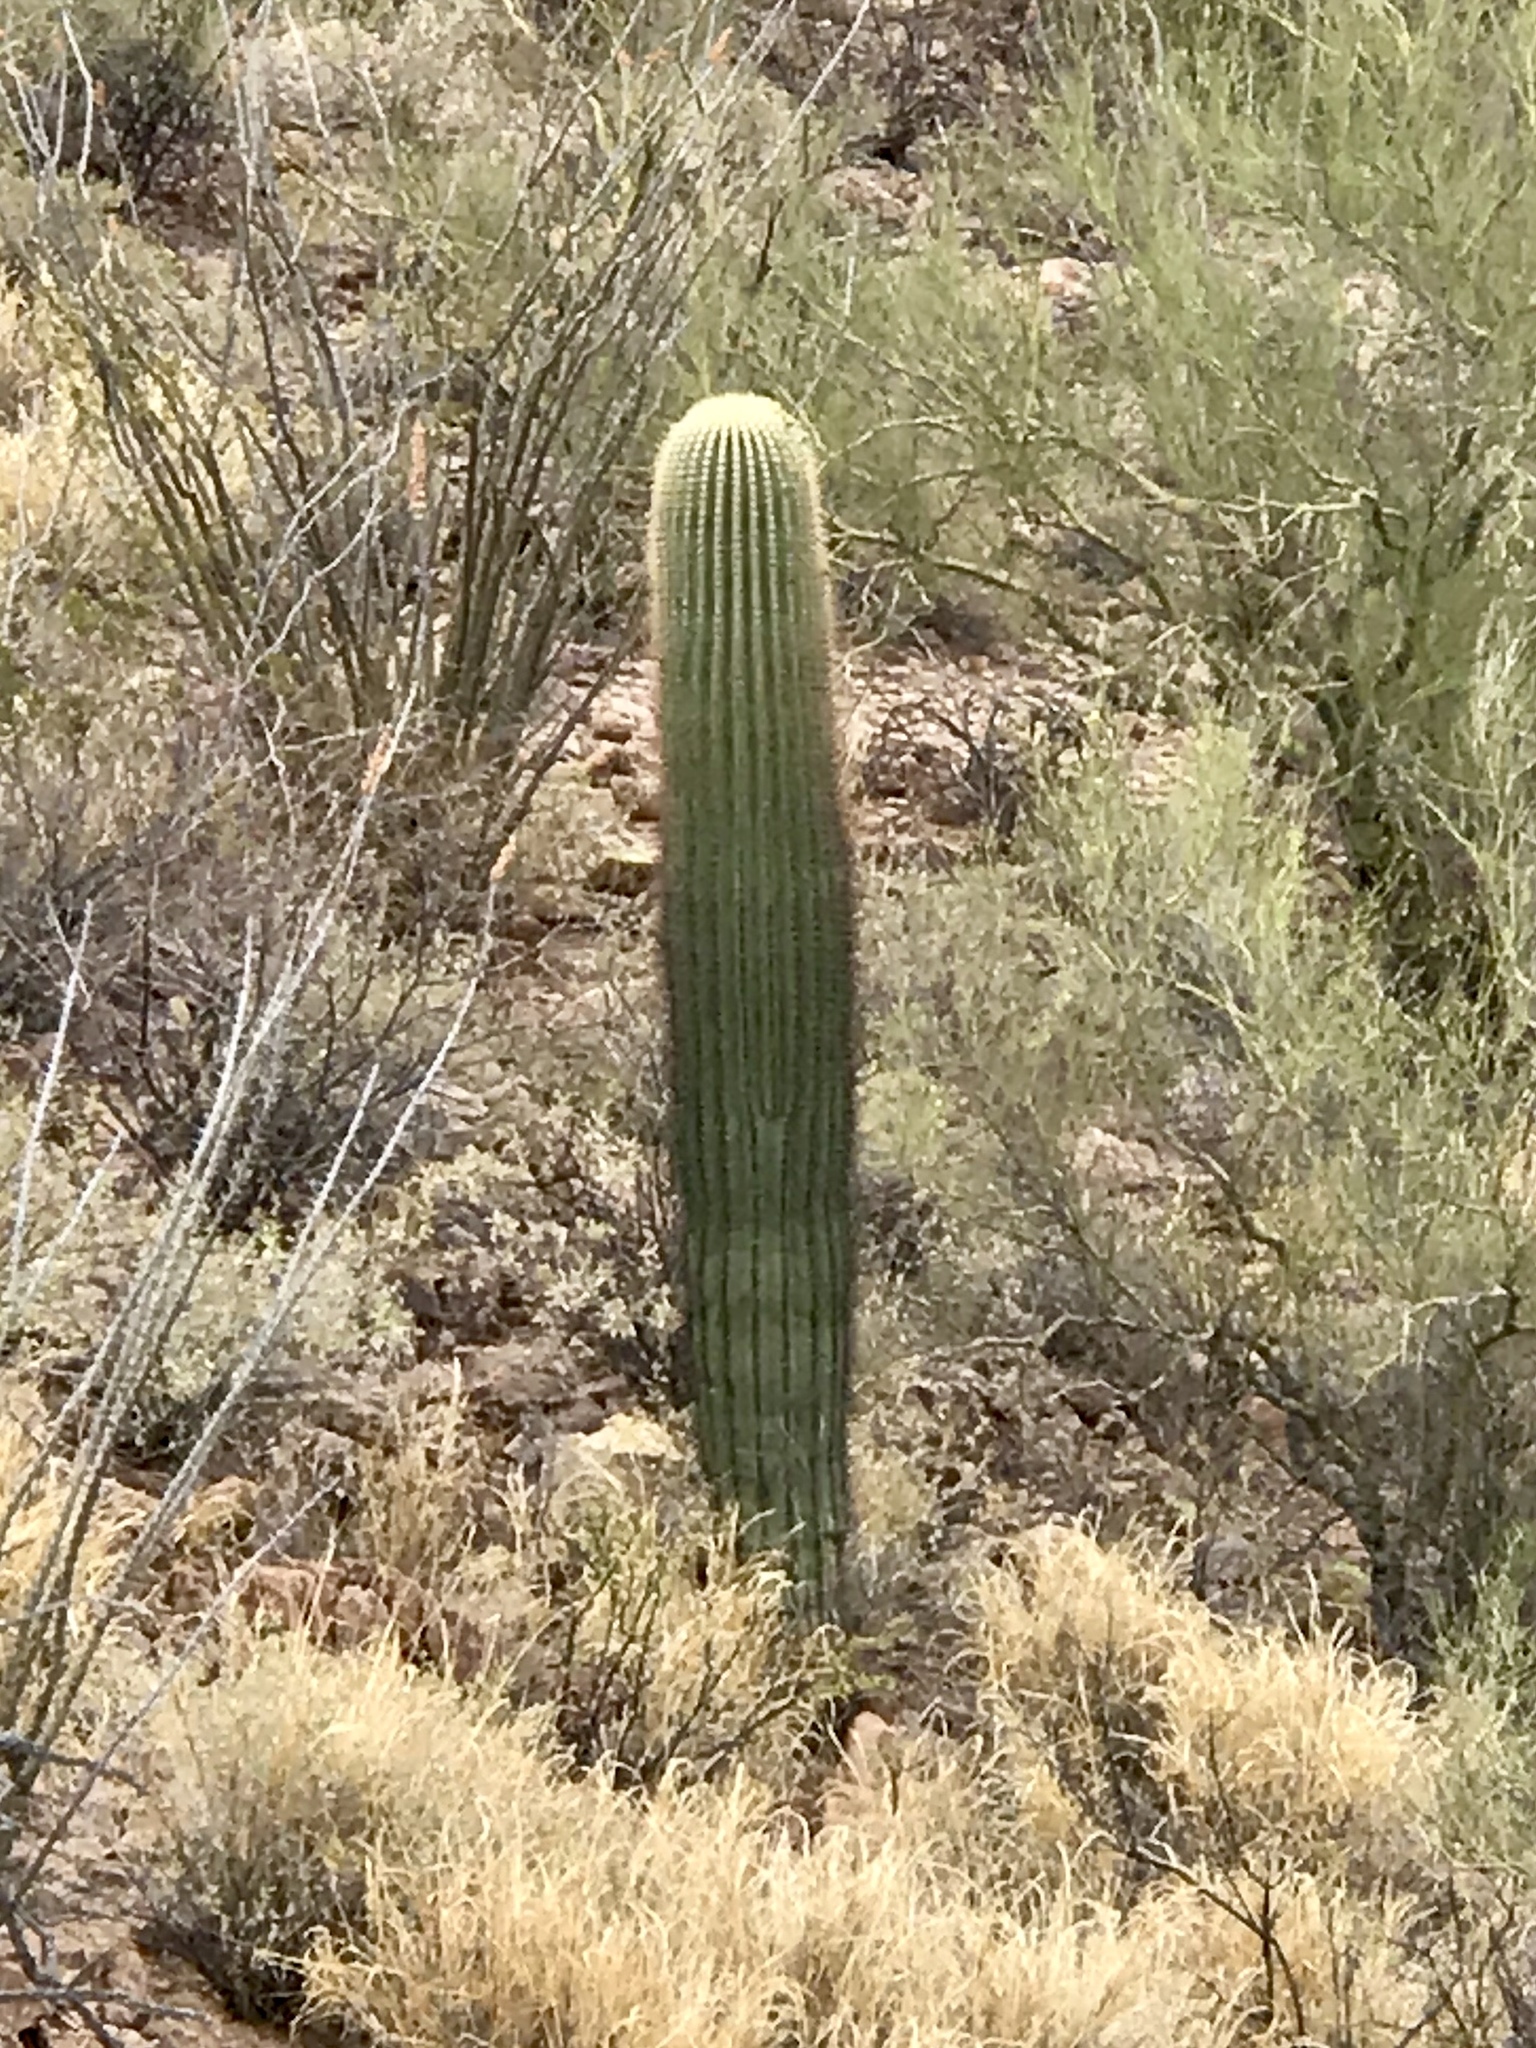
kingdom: Plantae
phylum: Tracheophyta
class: Magnoliopsida
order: Caryophyllales
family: Cactaceae
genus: Carnegiea
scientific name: Carnegiea gigantea
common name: Saguaro
